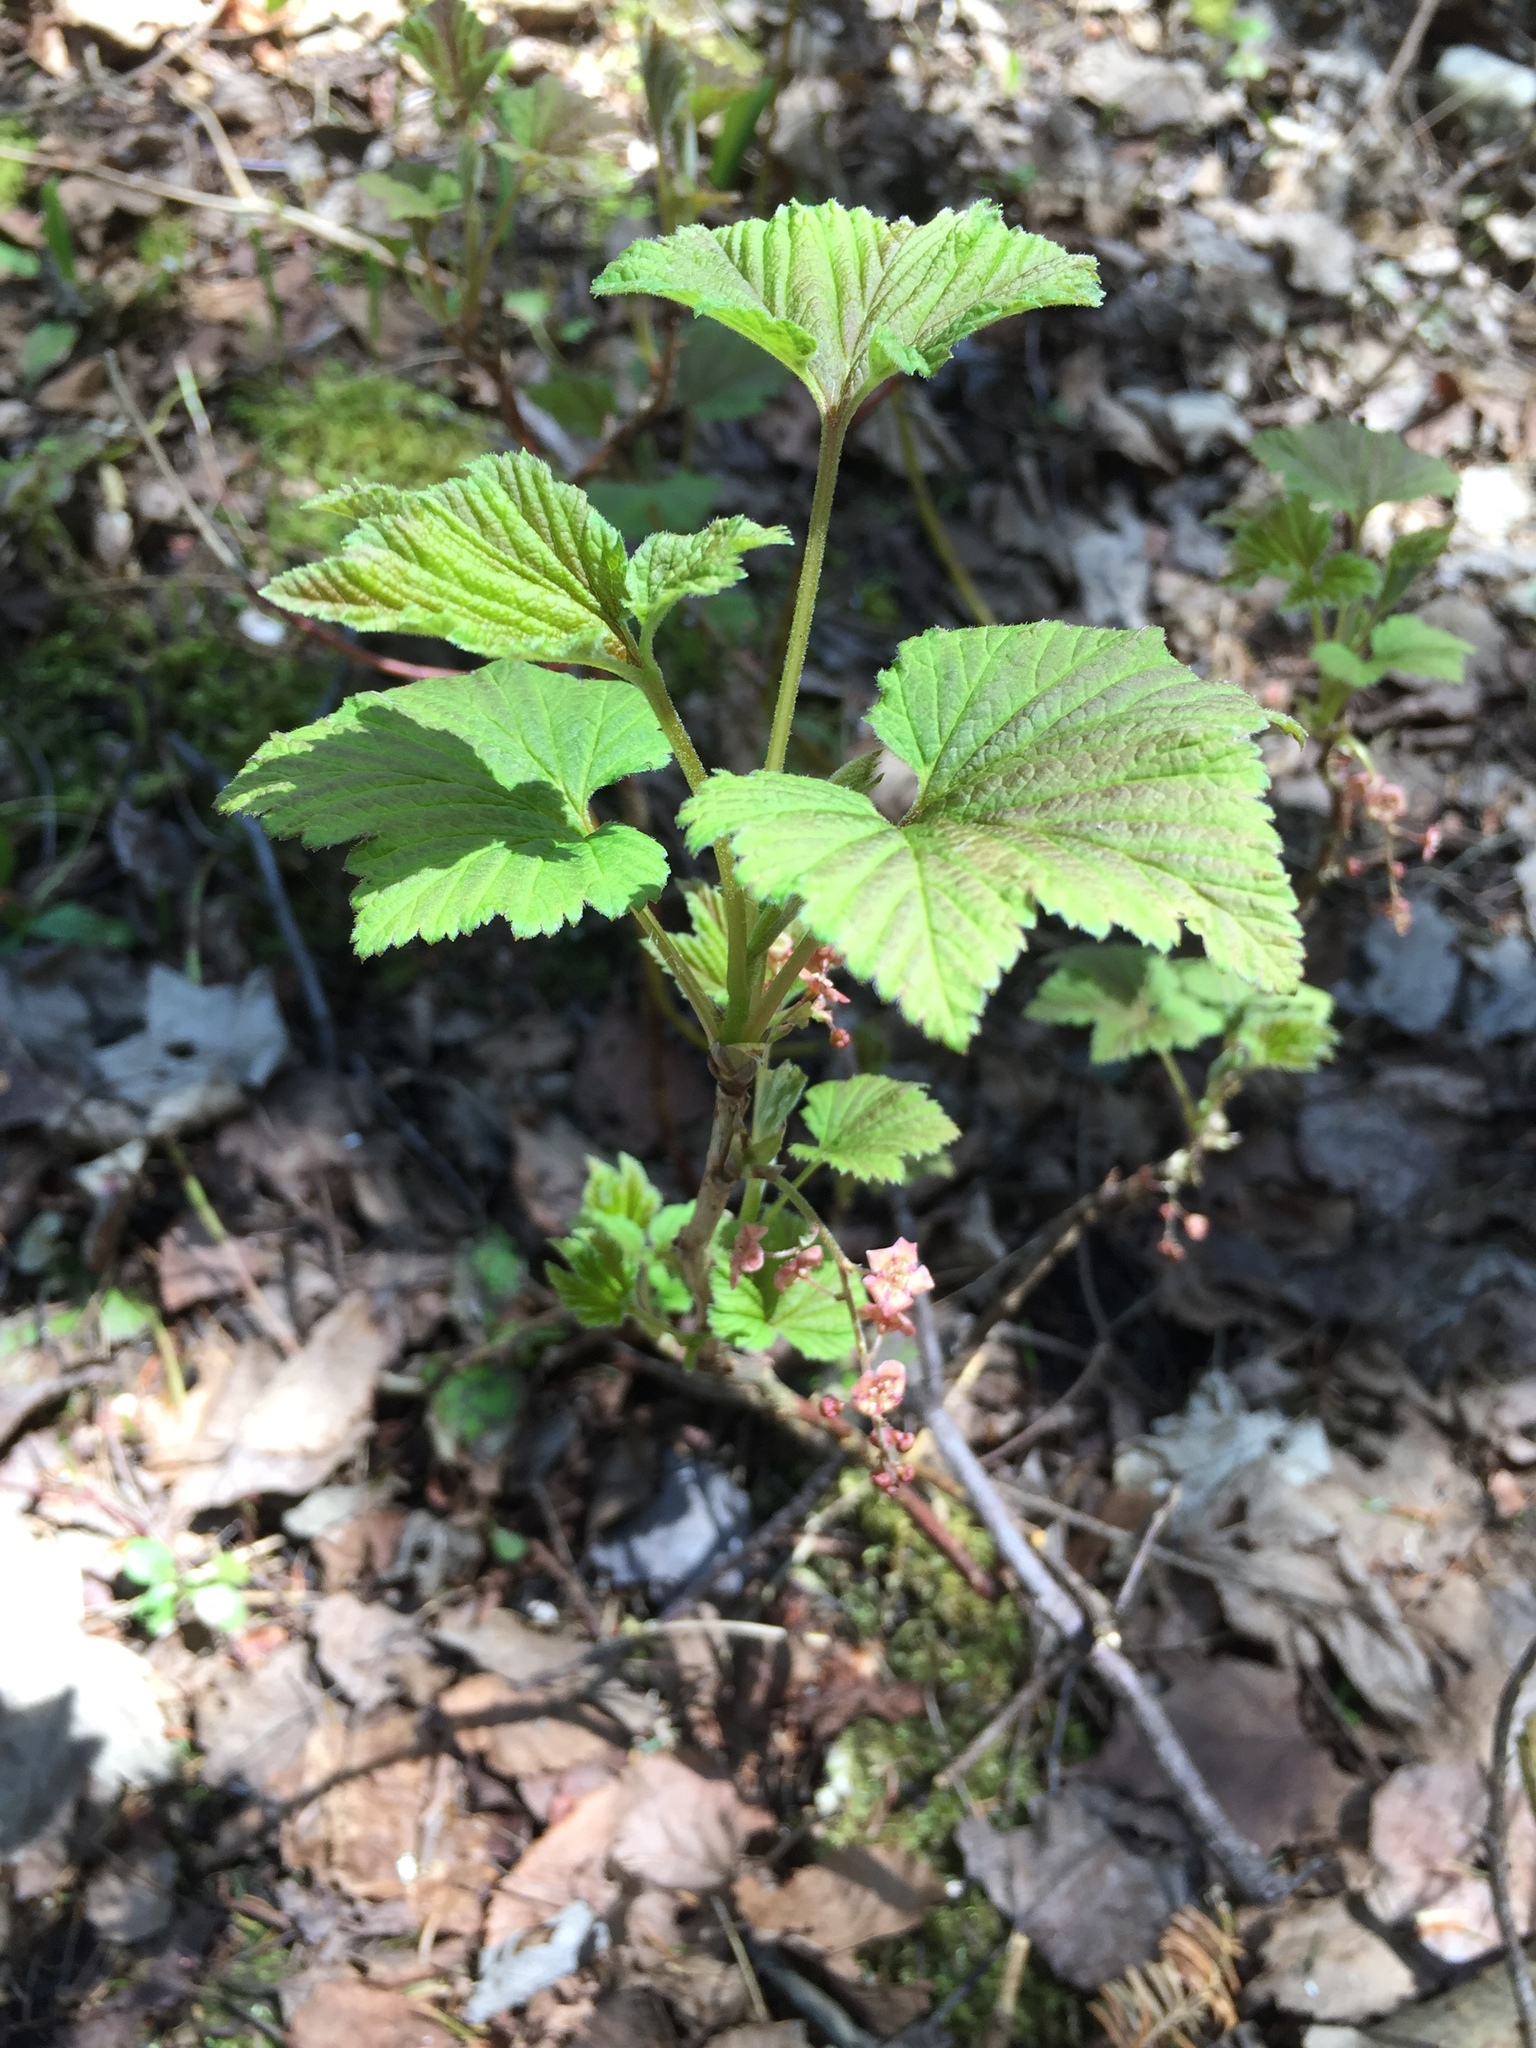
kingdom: Plantae
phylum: Tracheophyta
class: Magnoliopsida
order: Saxifragales
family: Grossulariaceae
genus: Ribes
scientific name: Ribes triste
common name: Swamp red currant
